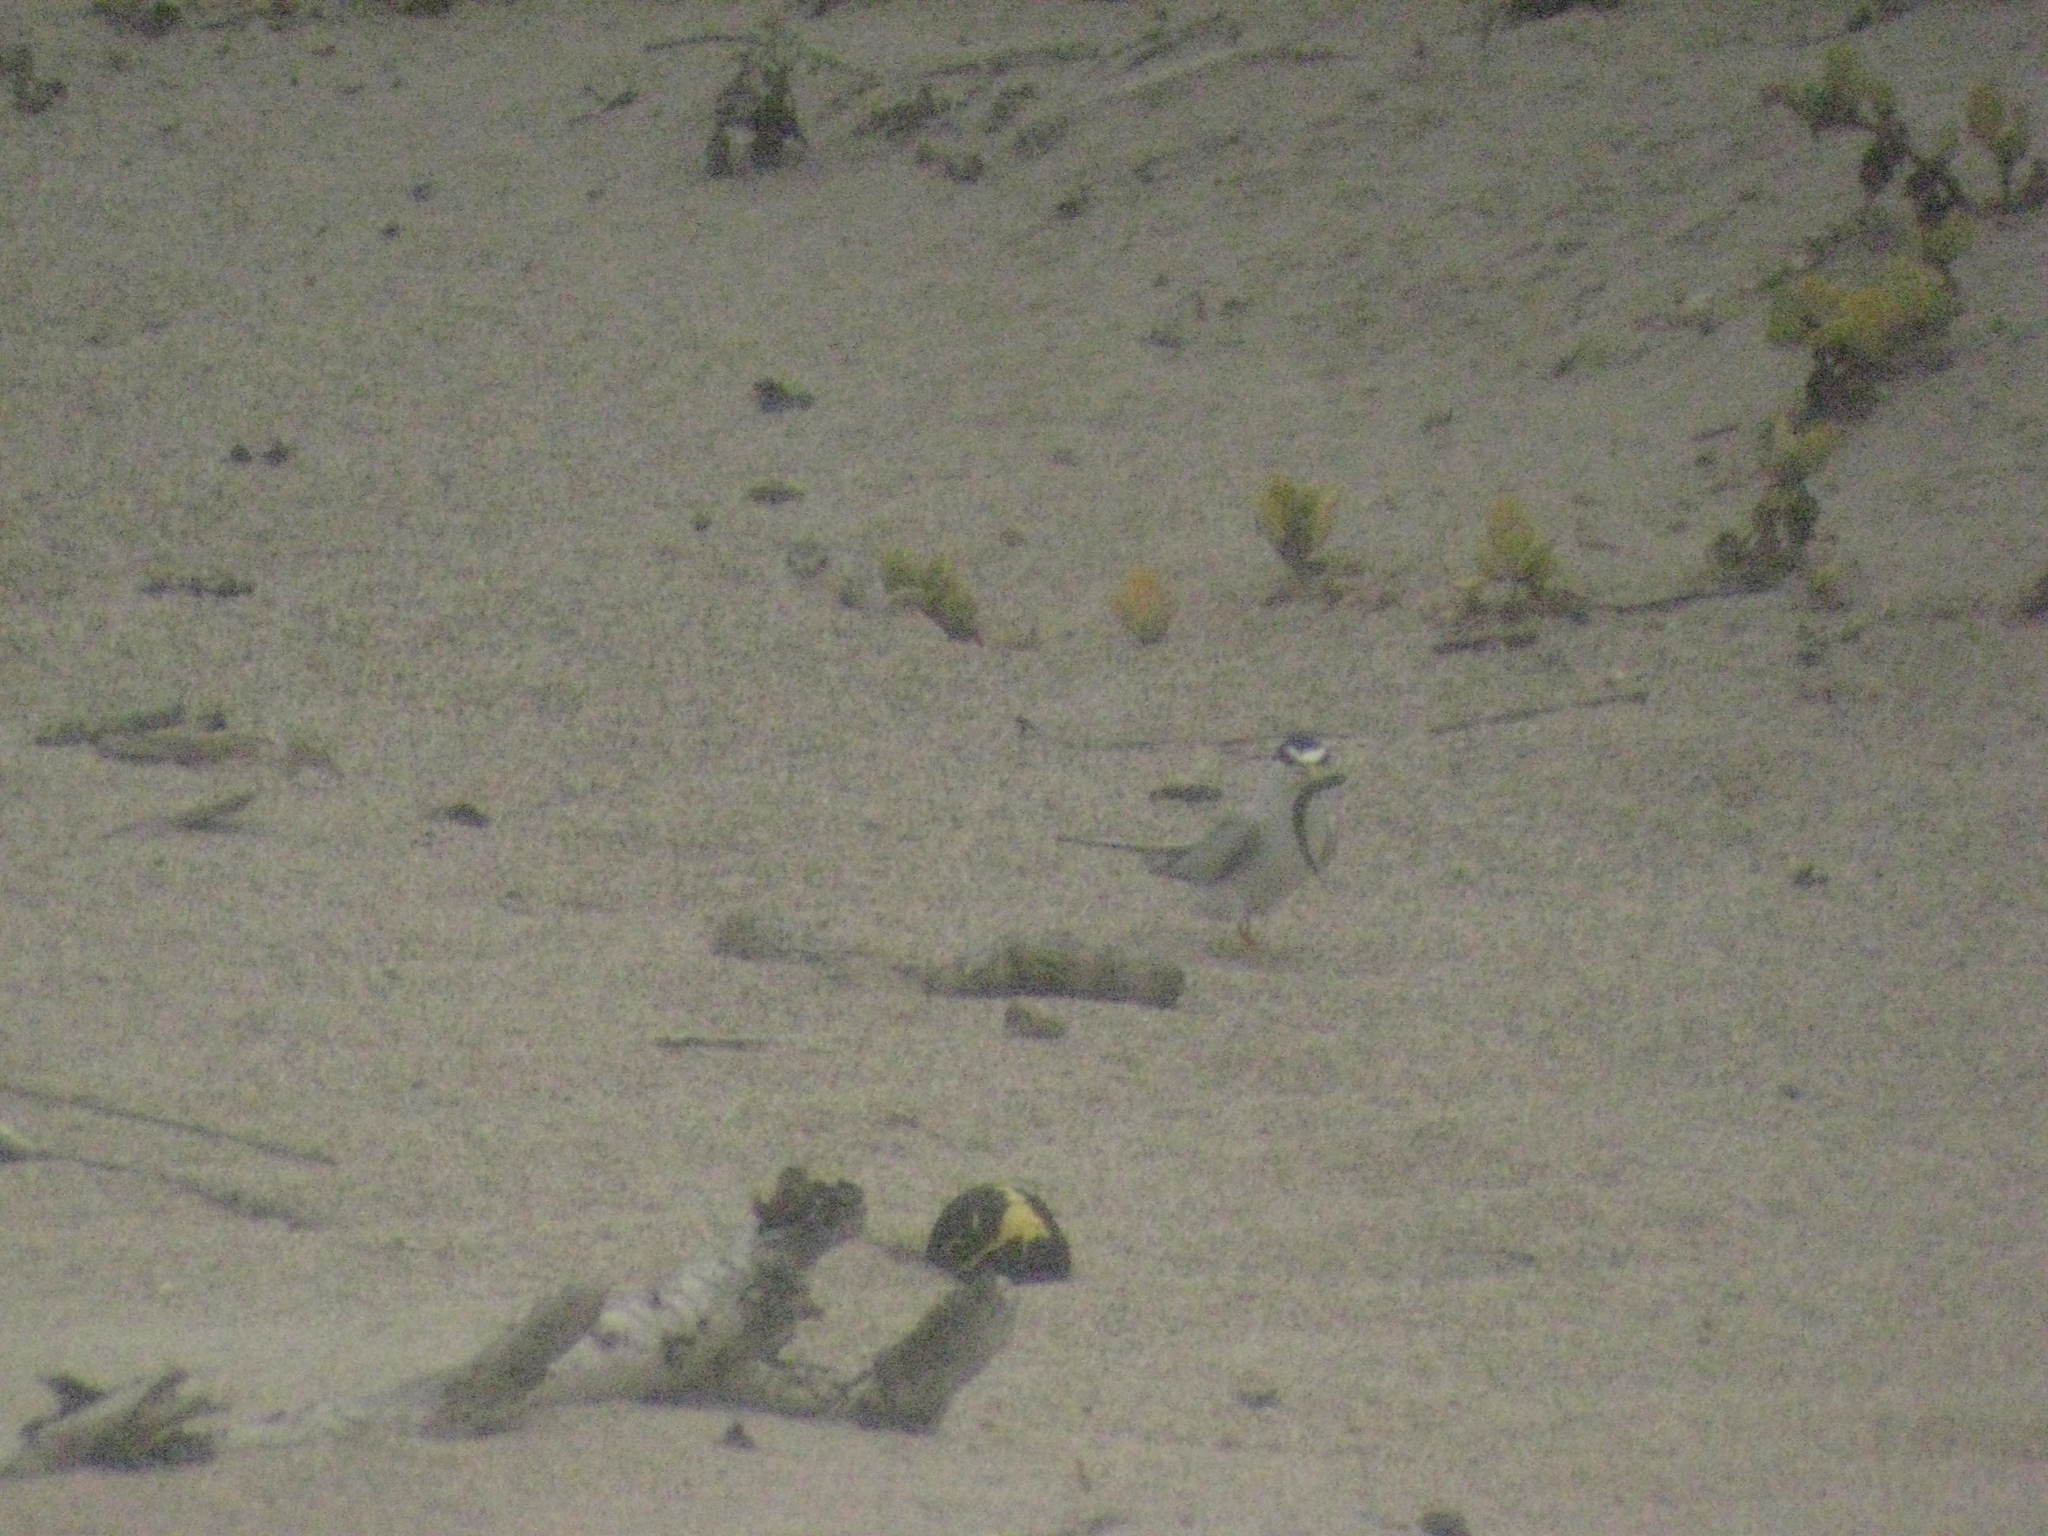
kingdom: Animalia
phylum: Chordata
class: Aves
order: Charadriiformes
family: Laridae
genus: Sternula
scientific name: Sternula antillarum
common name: Least tern
